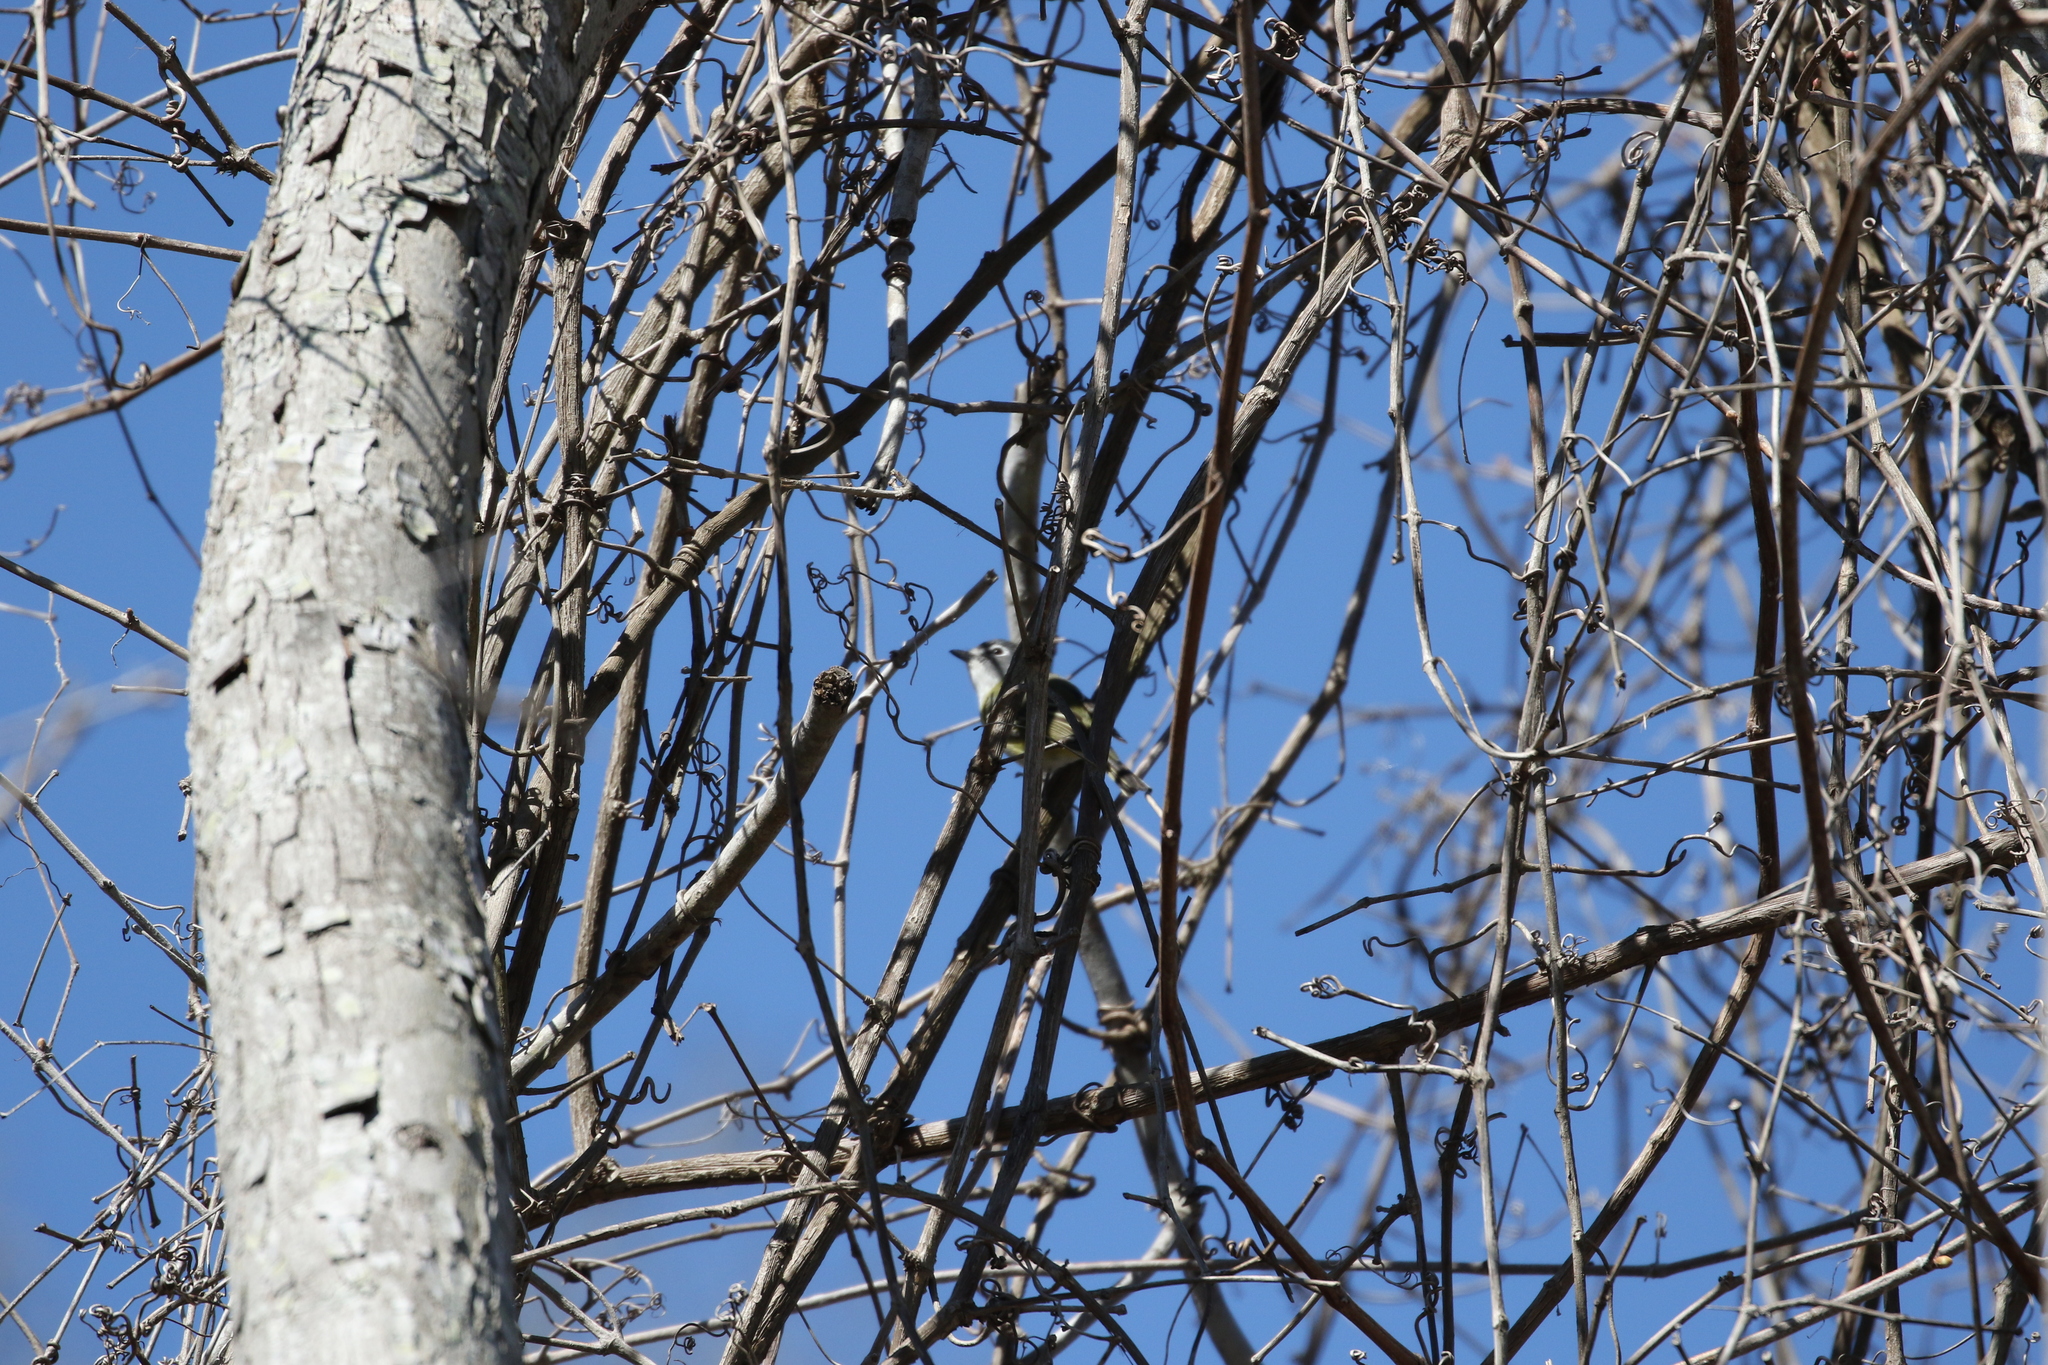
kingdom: Animalia
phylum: Chordata
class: Aves
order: Passeriformes
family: Vireonidae
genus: Vireo
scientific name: Vireo solitarius
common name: Blue-headed vireo
